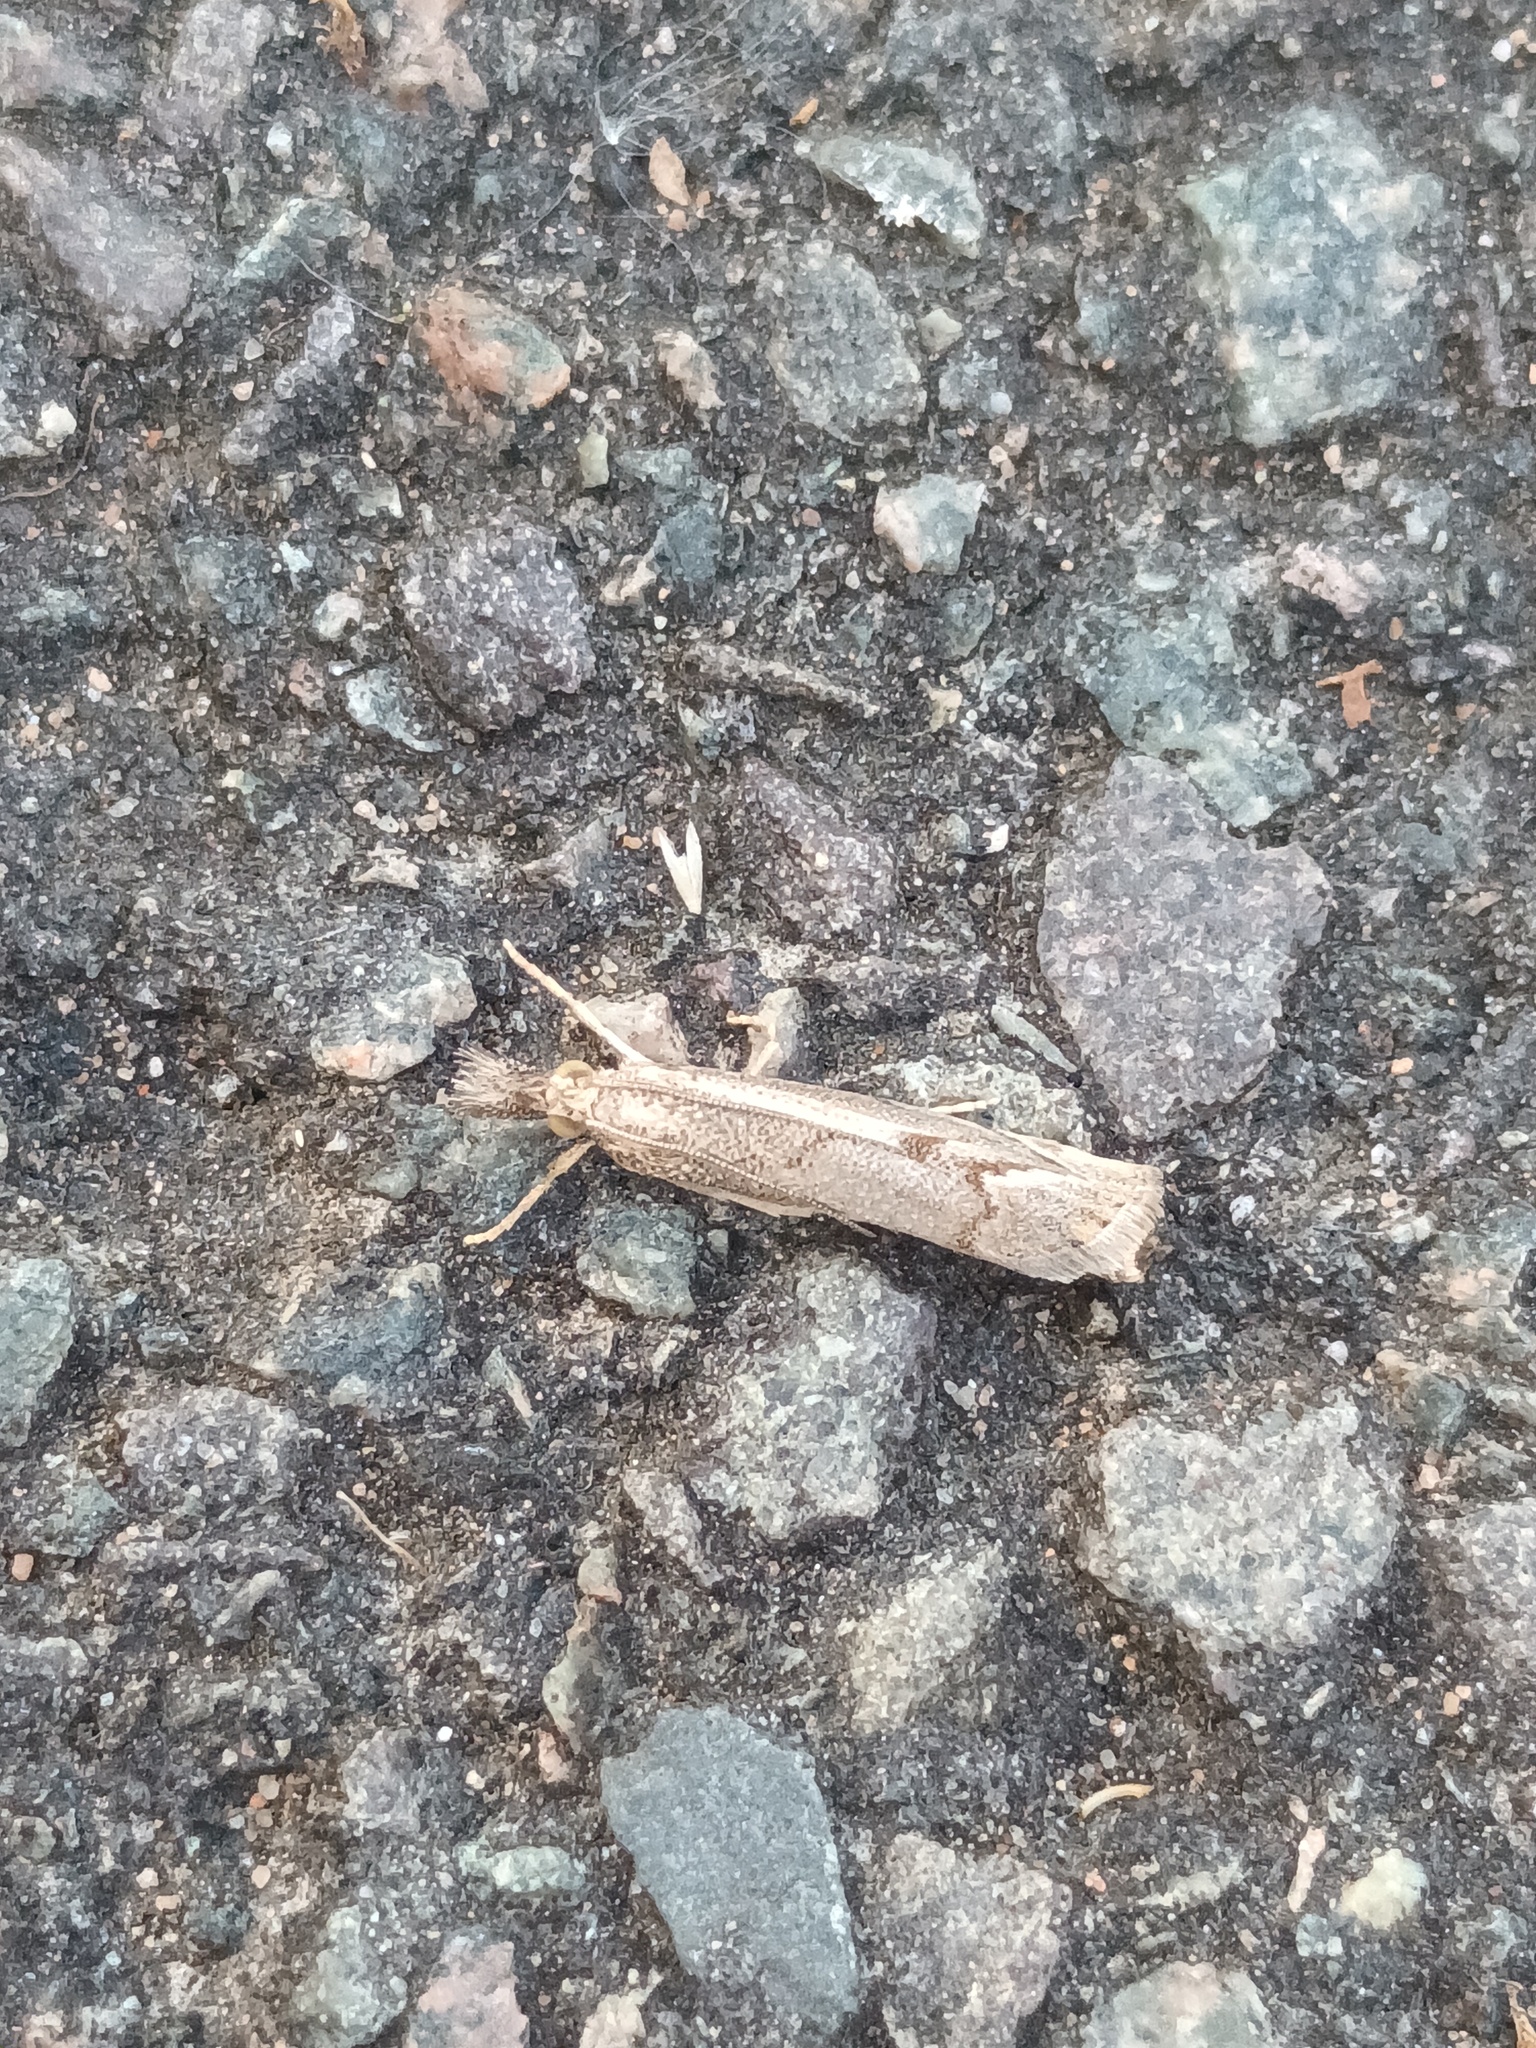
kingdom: Animalia
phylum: Arthropoda
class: Insecta
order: Lepidoptera
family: Crambidae
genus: Agriphila
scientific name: Agriphila geniculea
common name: Elbow-stripe grass-veneer
